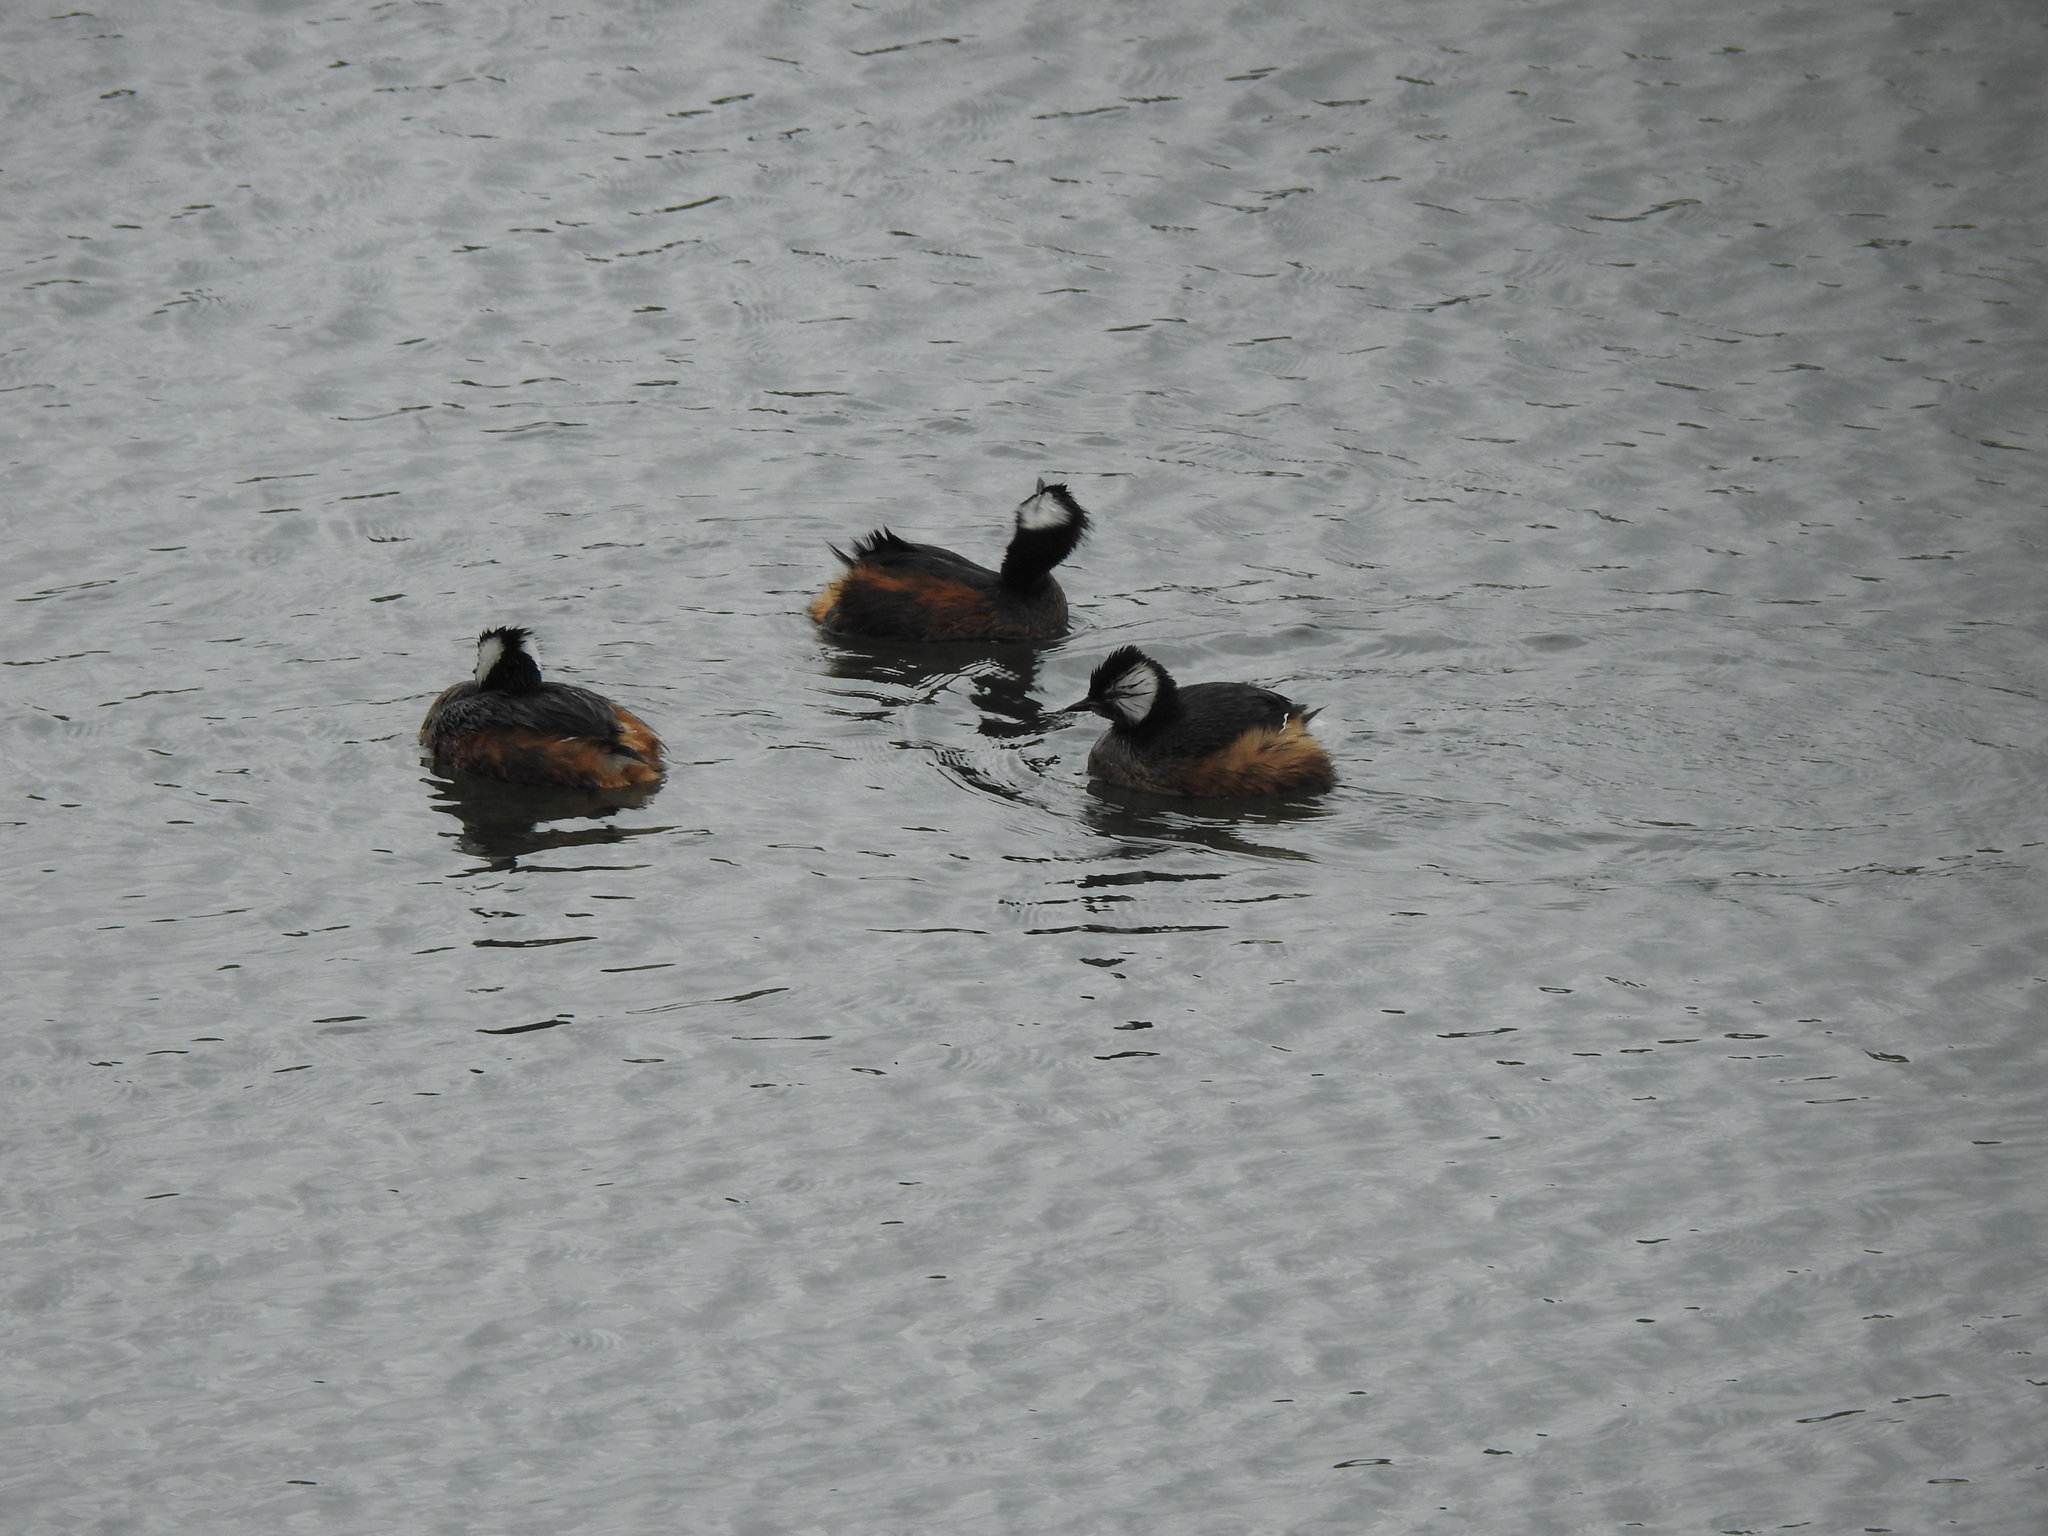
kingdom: Animalia
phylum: Chordata
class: Aves
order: Podicipediformes
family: Podicipedidae
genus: Rollandia
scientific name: Rollandia rolland
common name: White-tufted grebe
